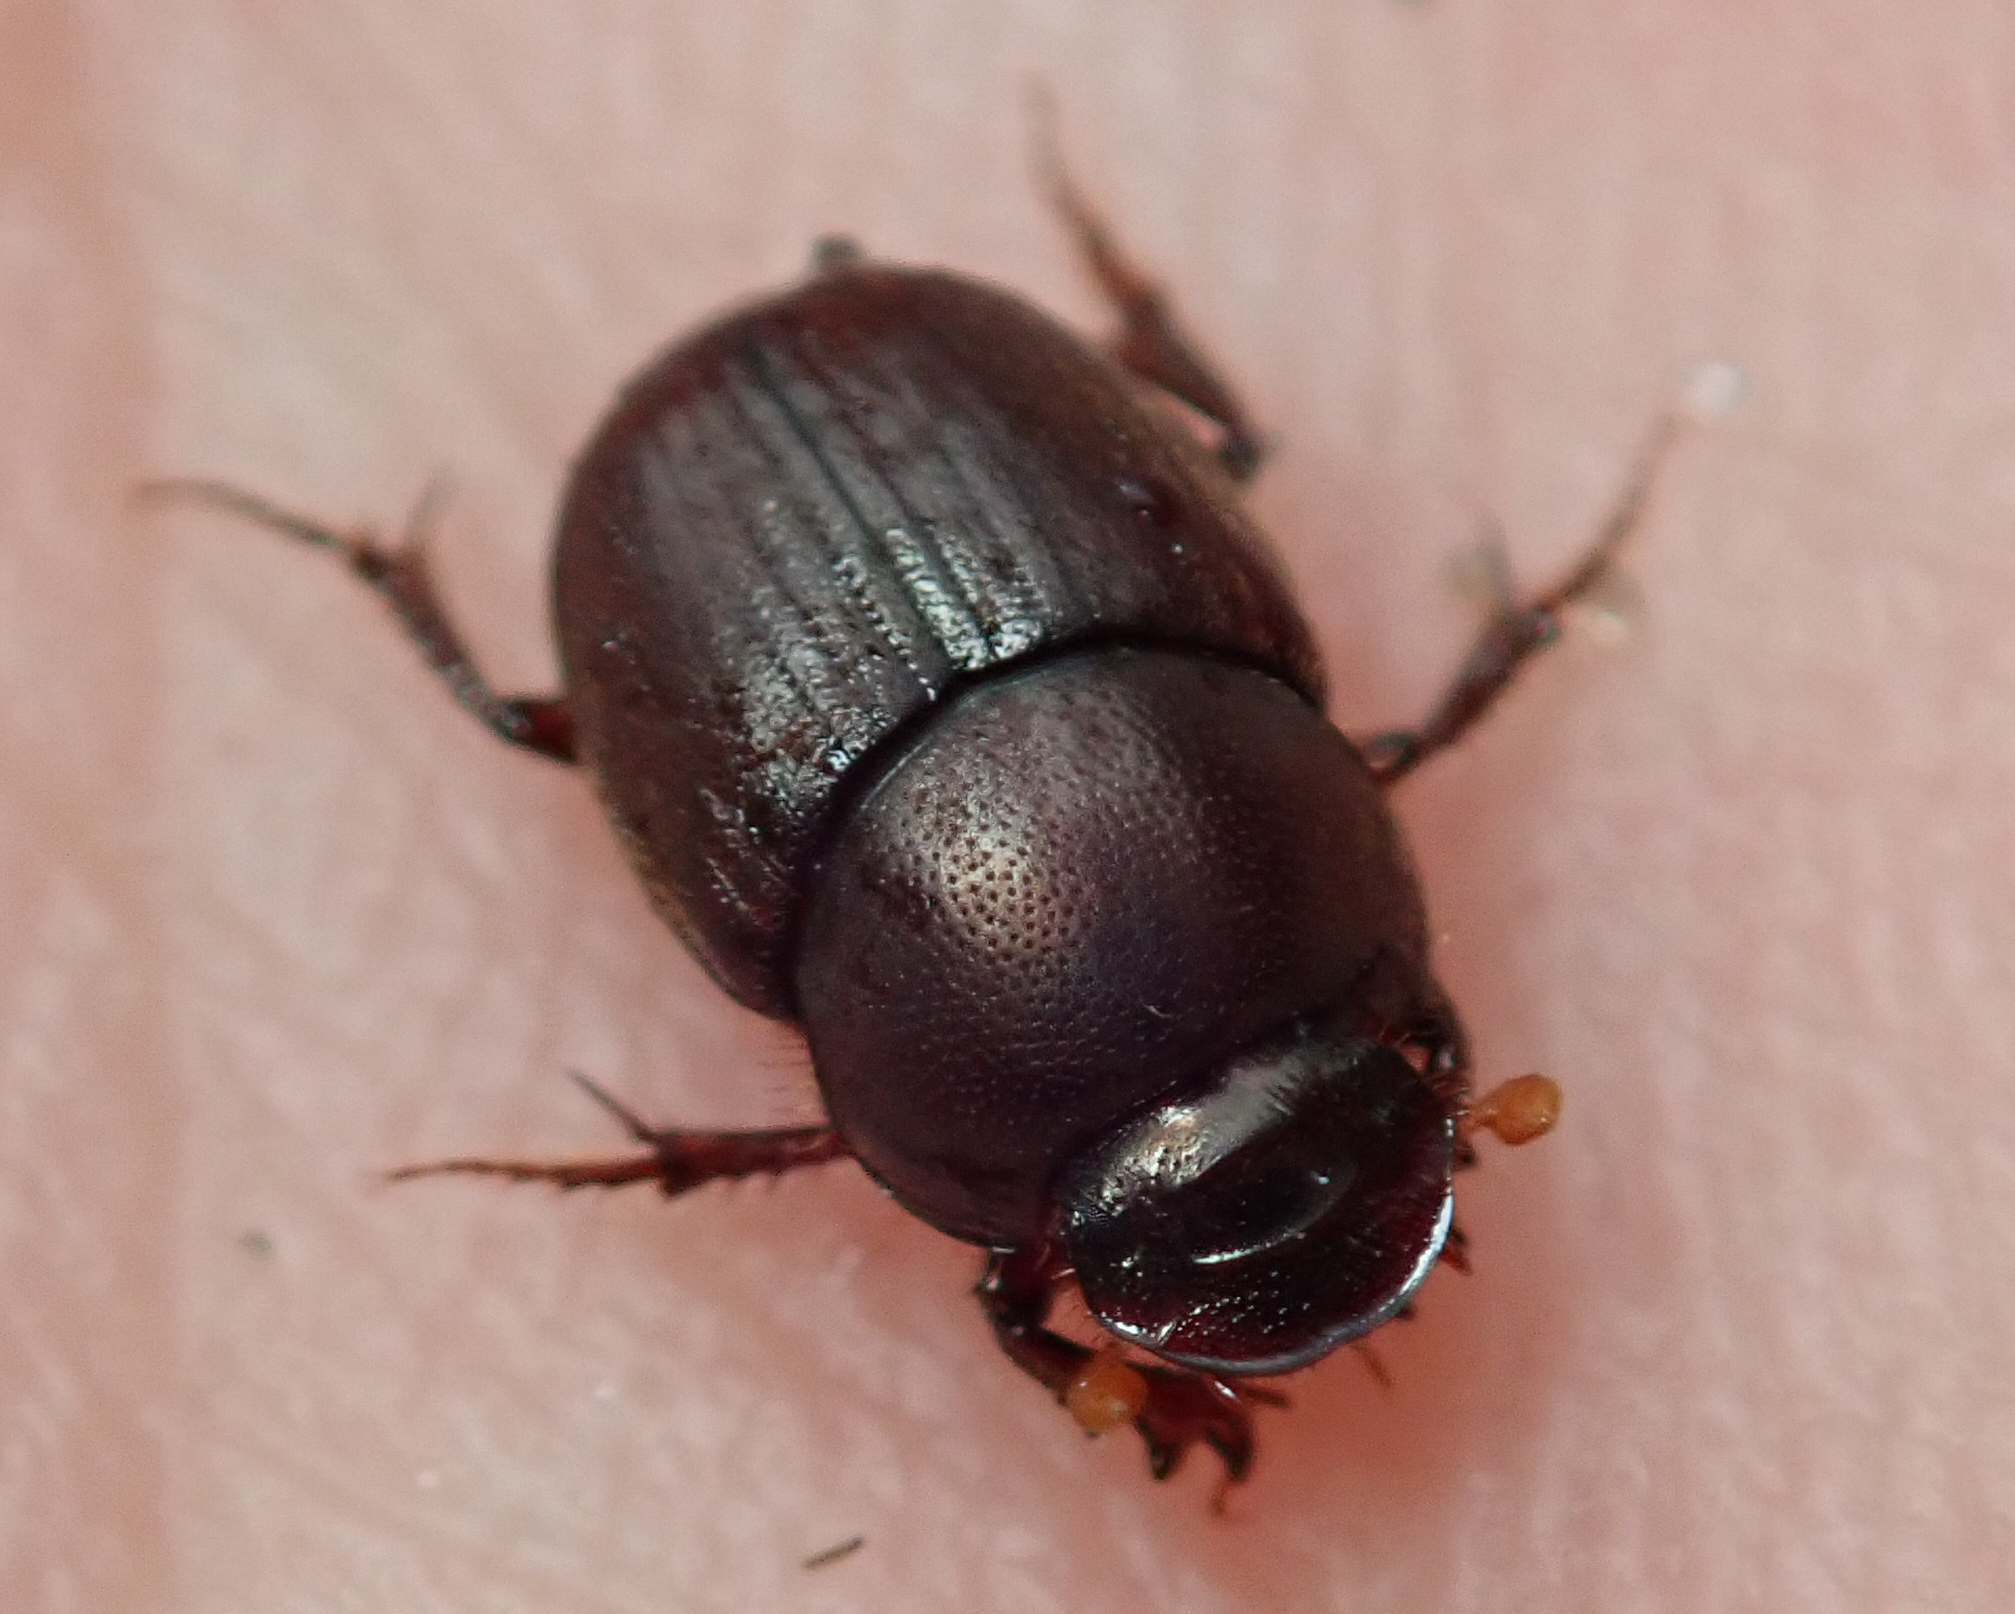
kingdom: Animalia
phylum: Arthropoda
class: Insecta
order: Coleoptera
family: Scarabaeidae
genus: Euonthophagus
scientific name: Euonthophagus carbonarius
